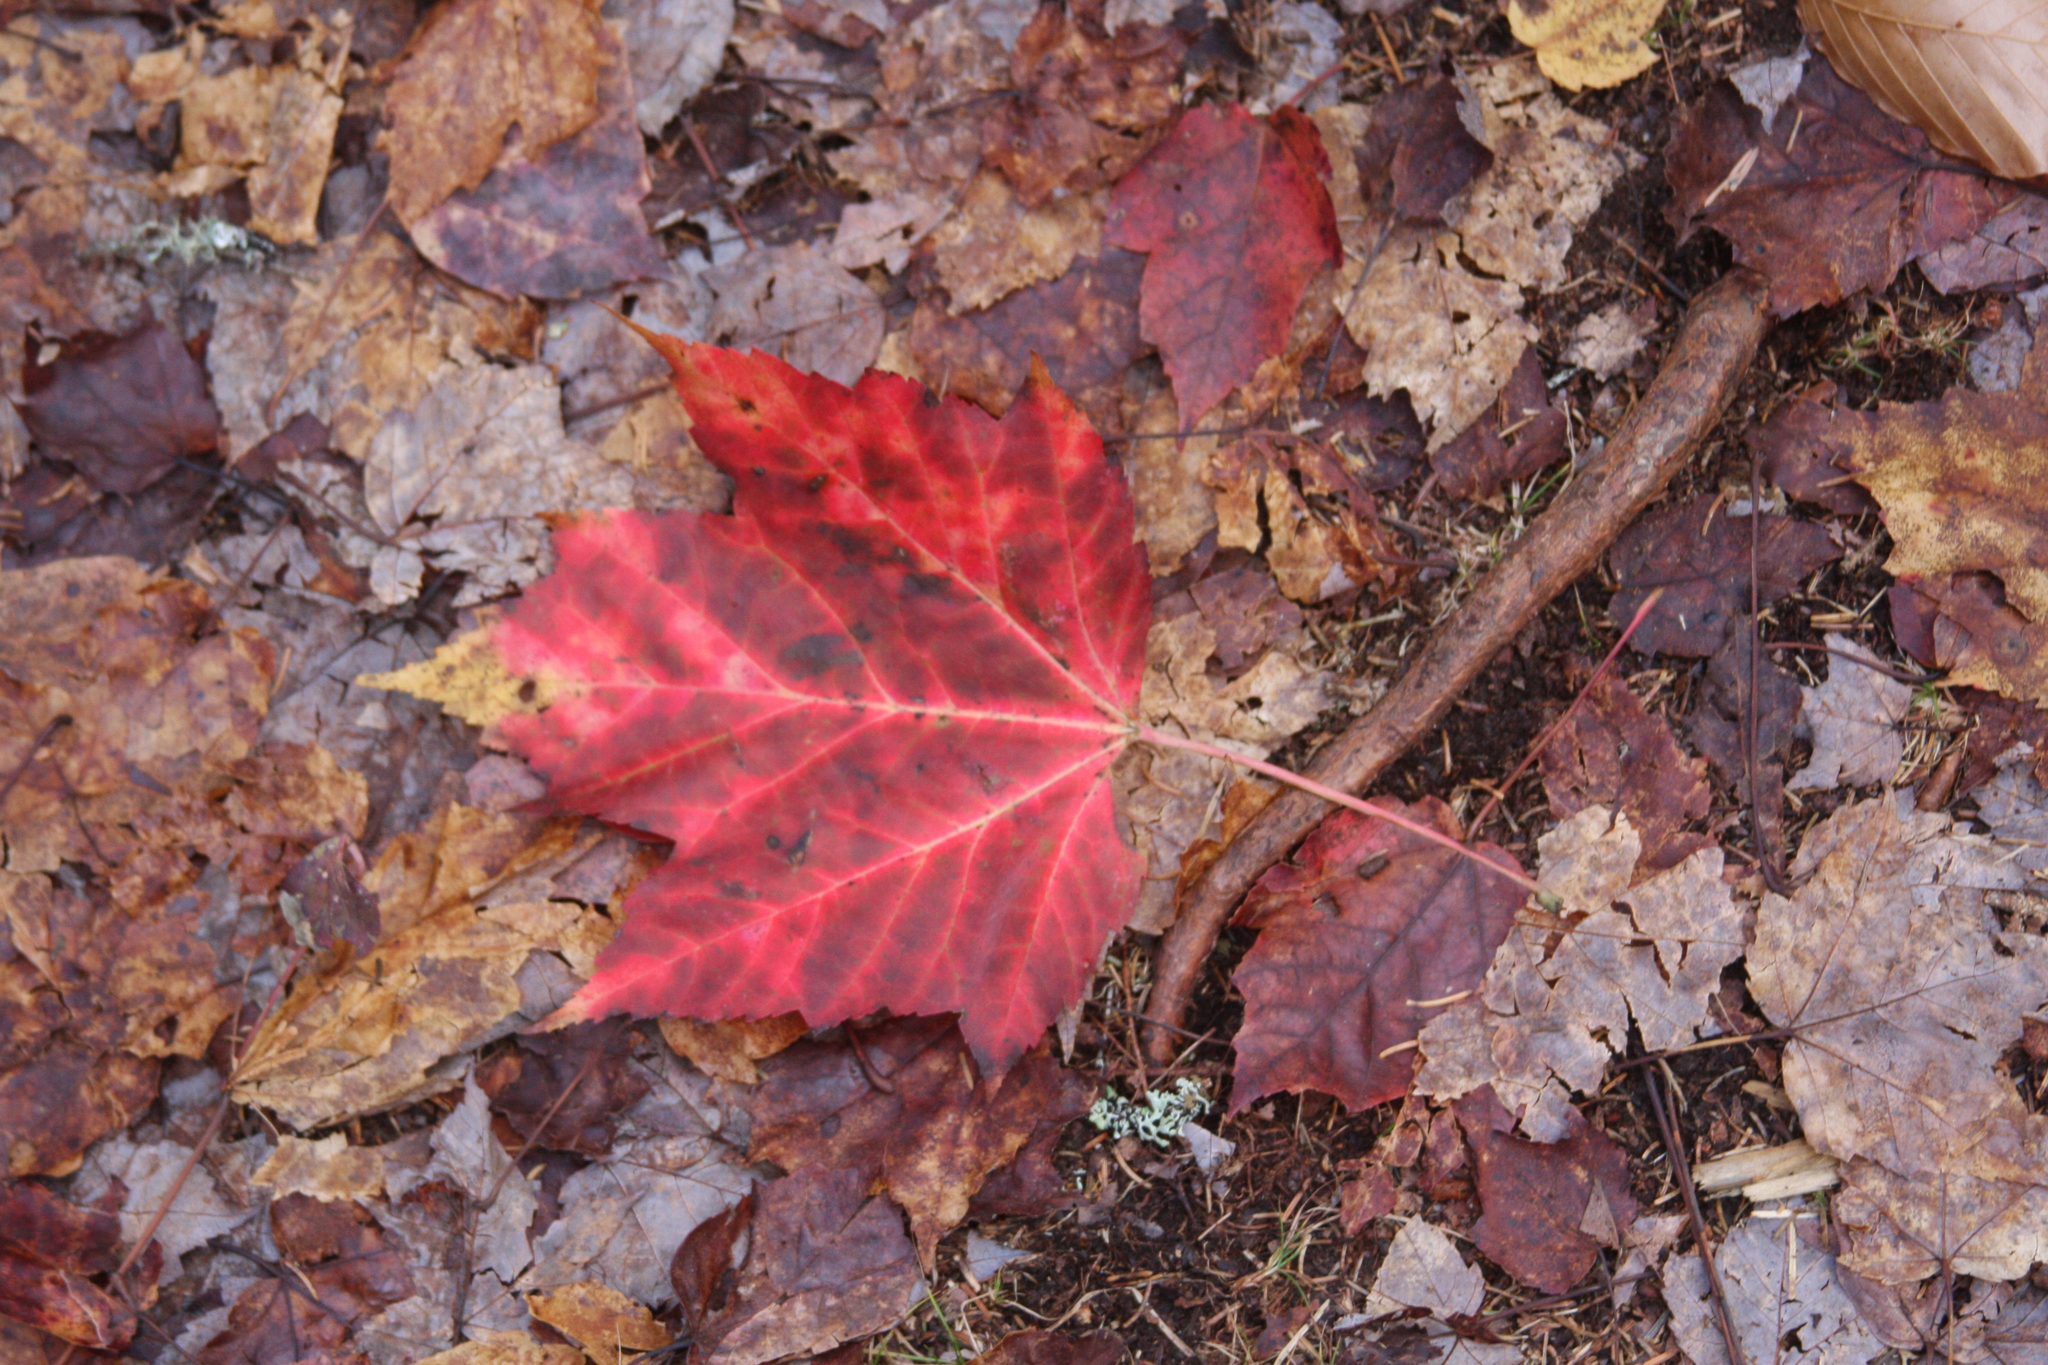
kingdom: Plantae
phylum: Tracheophyta
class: Magnoliopsida
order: Sapindales
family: Sapindaceae
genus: Acer
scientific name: Acer rubrum
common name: Red maple
